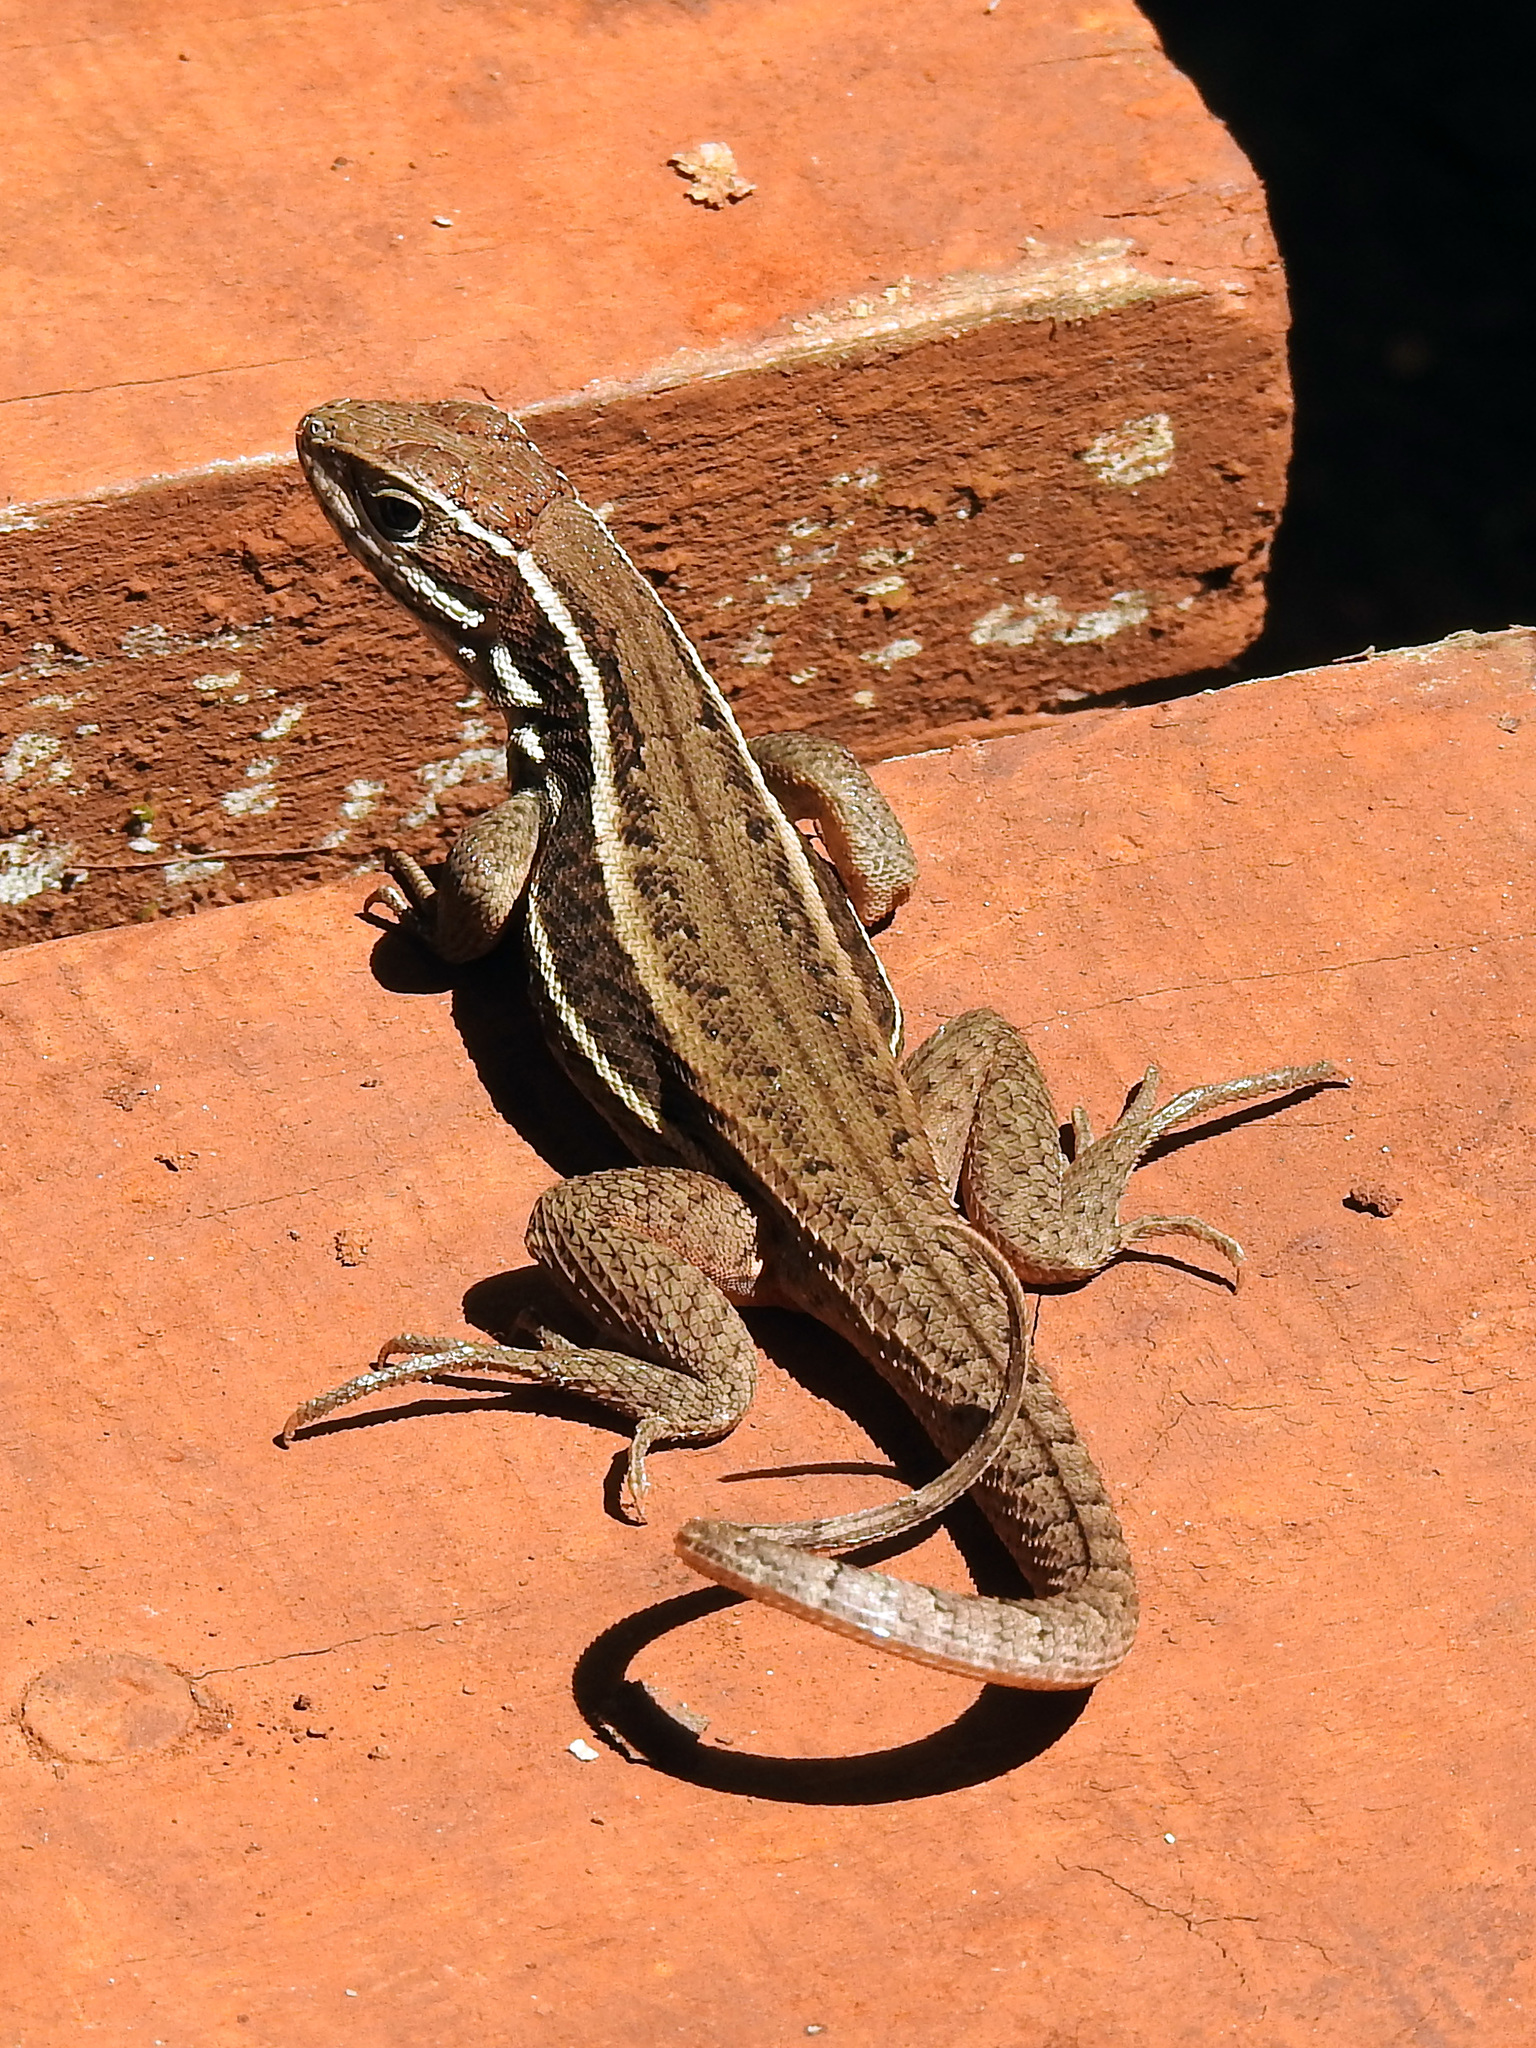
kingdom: Animalia
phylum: Chordata
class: Squamata
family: Leiocephalidae
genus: Leiocephalus
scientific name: Leiocephalus cubensis
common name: Cuban curlytail lizard
